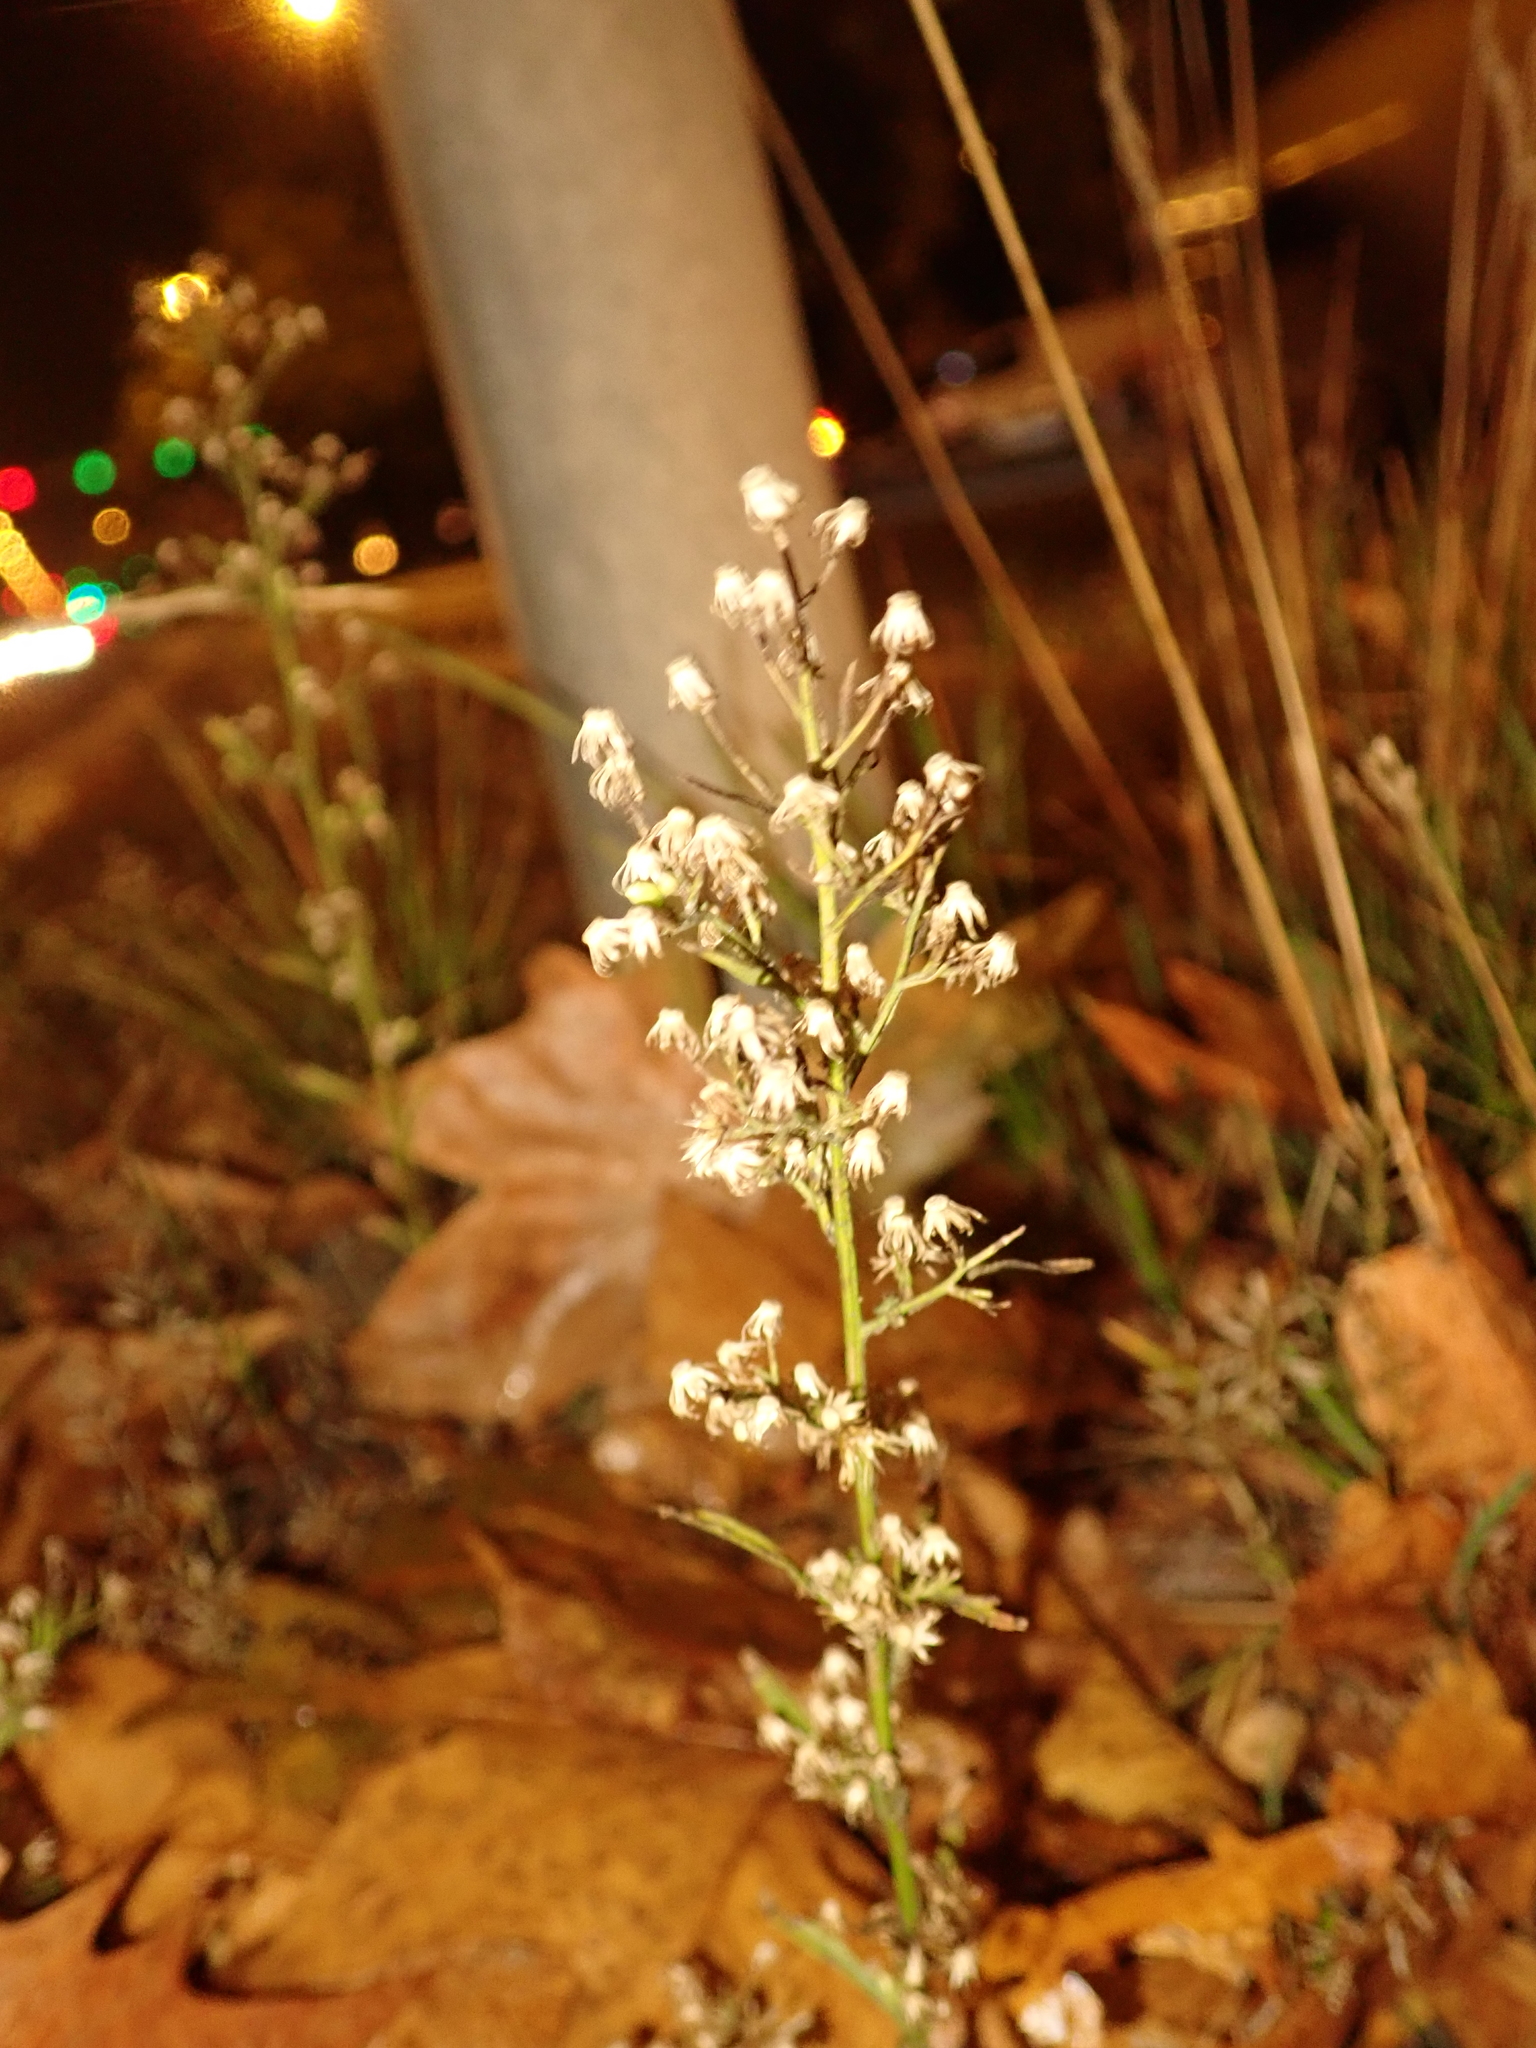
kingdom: Plantae
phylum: Tracheophyta
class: Magnoliopsida
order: Asterales
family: Asteraceae
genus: Erigeron
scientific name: Erigeron canadensis
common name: Canadian fleabane
